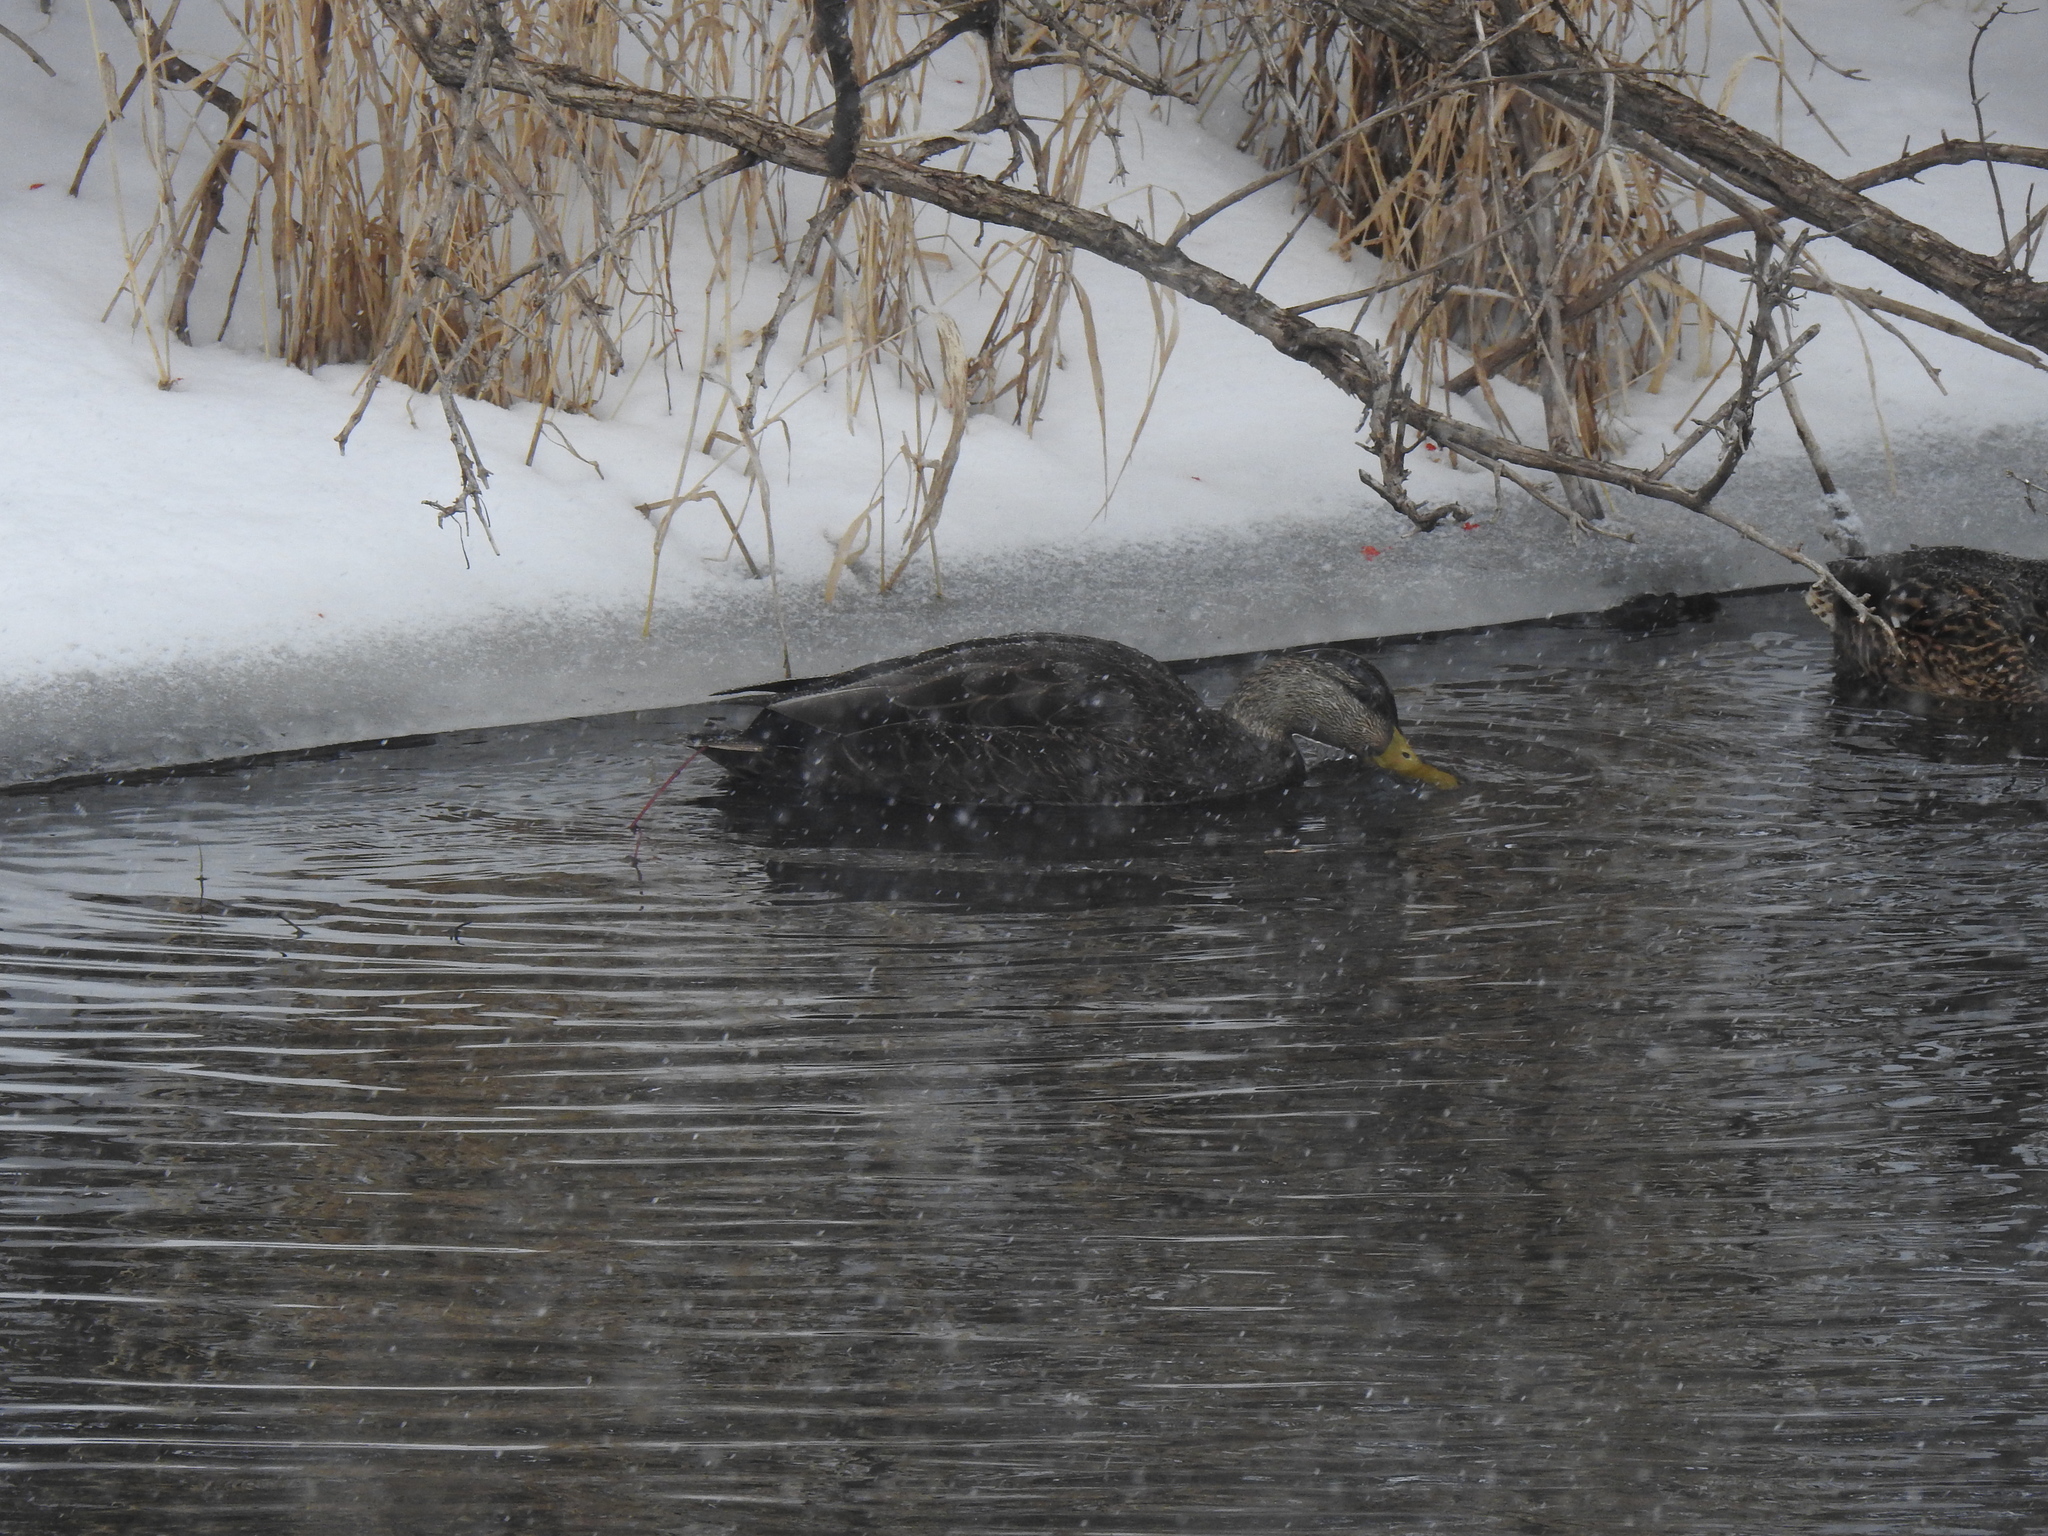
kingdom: Animalia
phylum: Chordata
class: Aves
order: Anseriformes
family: Anatidae
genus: Anas
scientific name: Anas rubripes
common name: American black duck
